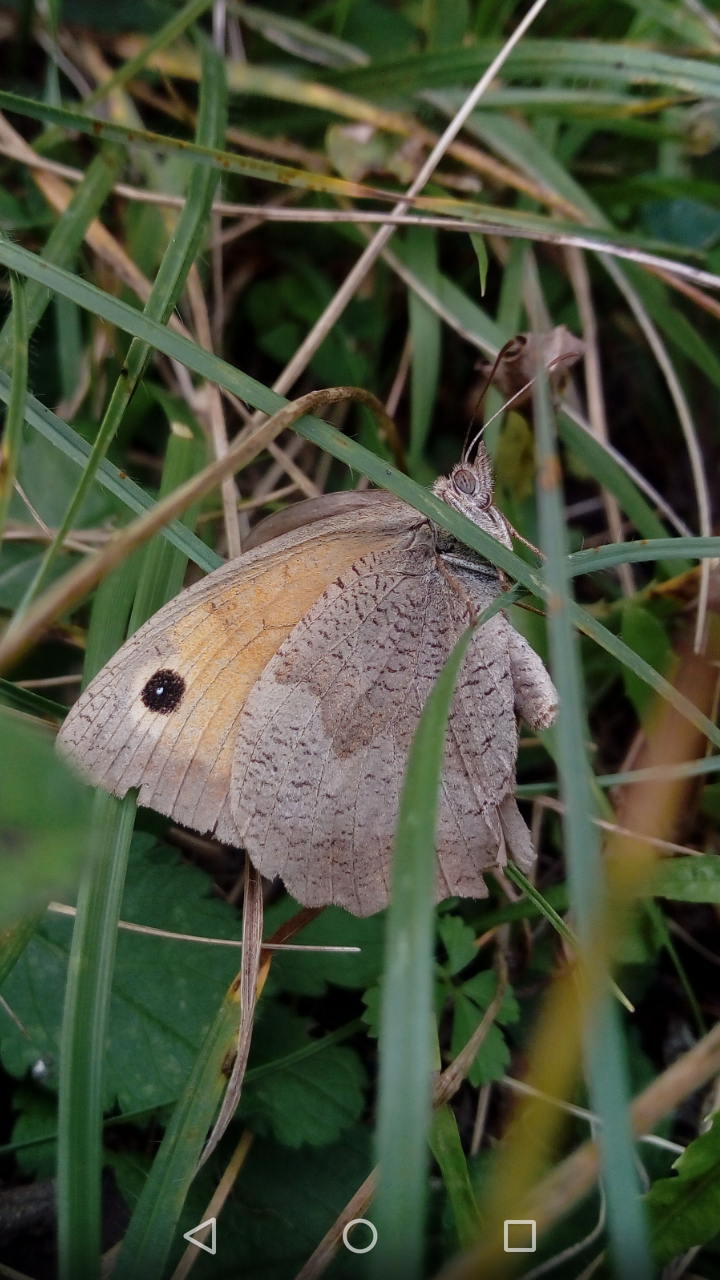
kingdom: Animalia
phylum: Arthropoda
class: Insecta
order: Lepidoptera
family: Nymphalidae
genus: Maniola
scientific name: Maniola jurtina
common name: Meadow brown
